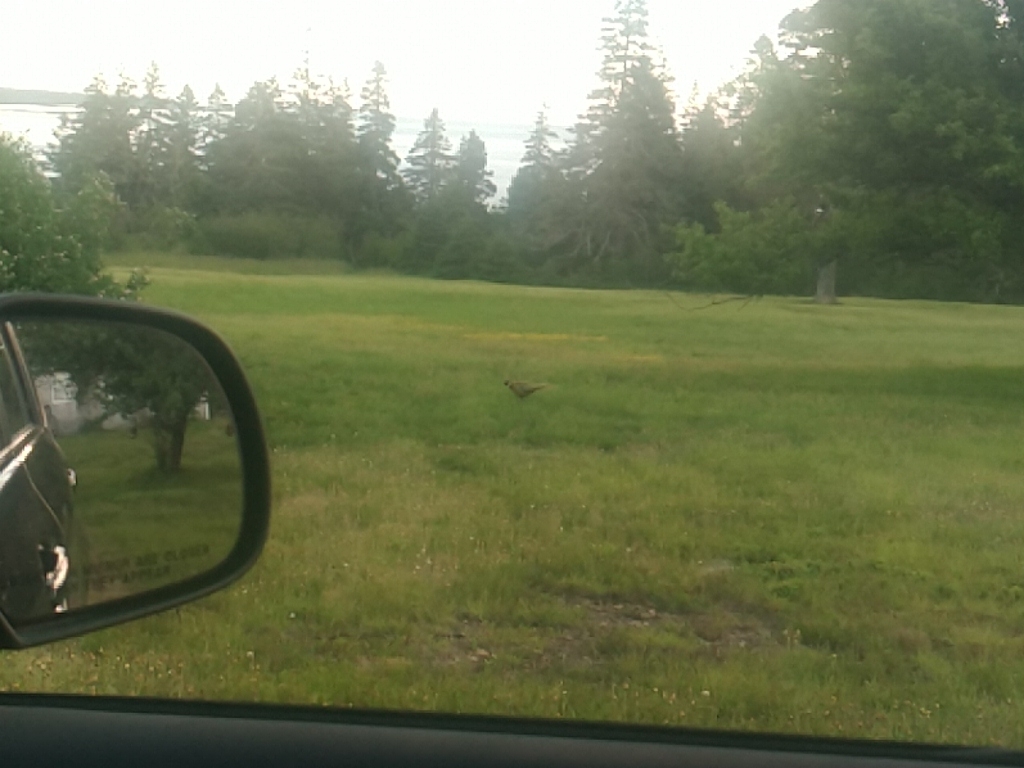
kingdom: Animalia
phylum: Chordata
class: Aves
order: Galliformes
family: Phasianidae
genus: Phasianus
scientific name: Phasianus colchicus
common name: Common pheasant
